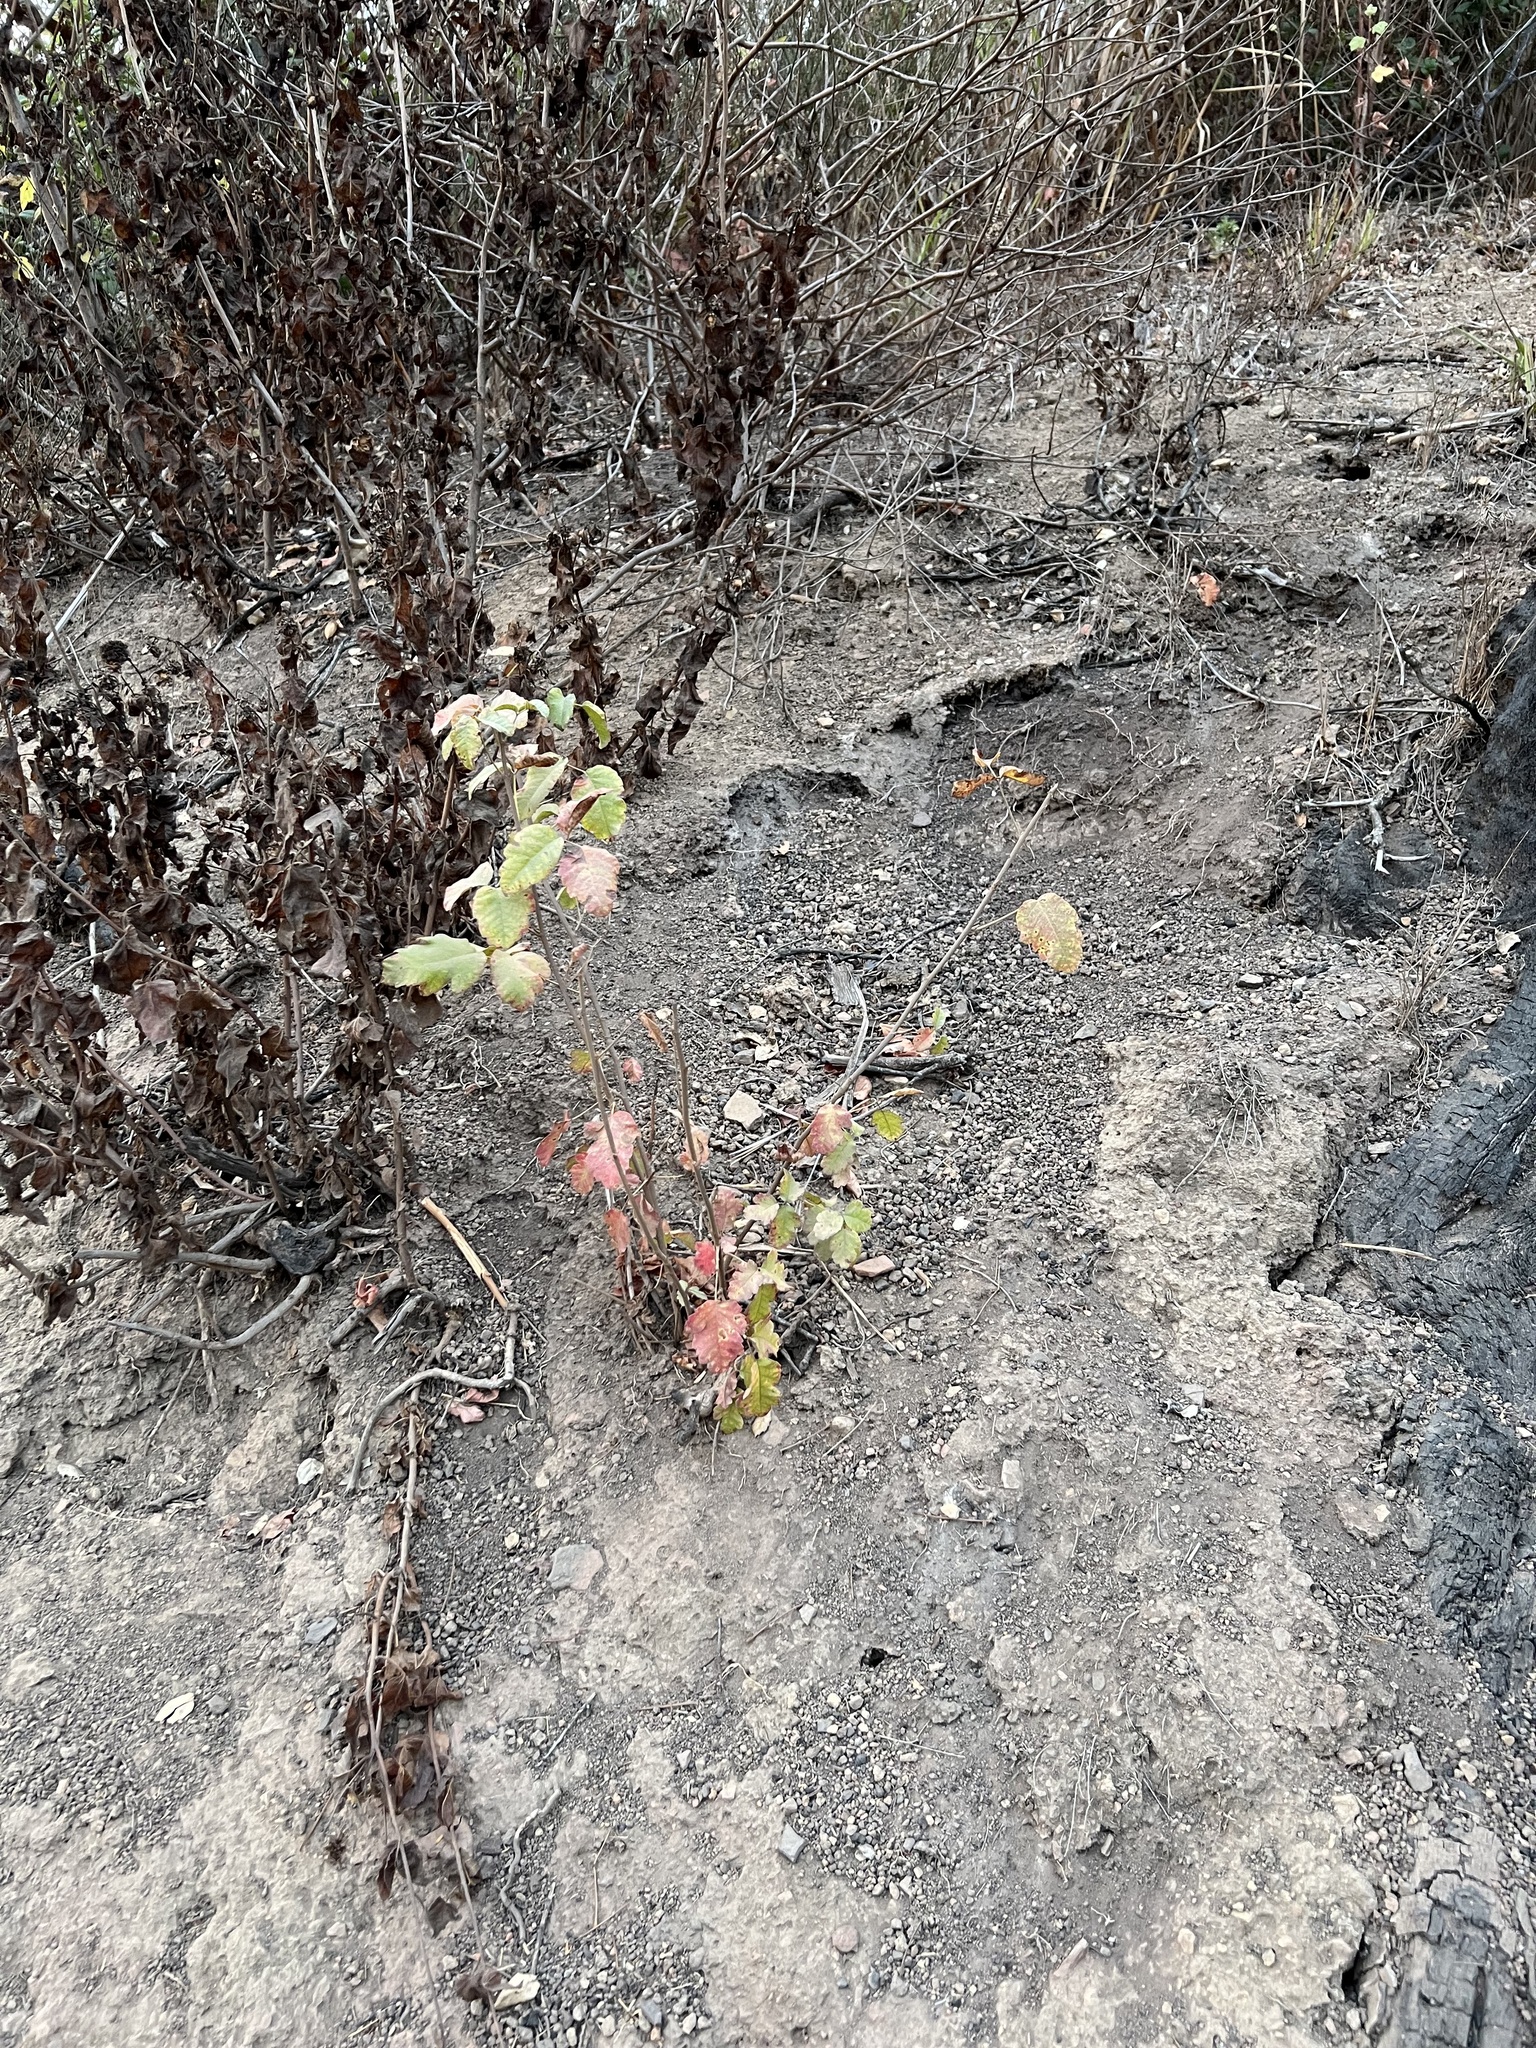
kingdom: Plantae
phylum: Tracheophyta
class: Magnoliopsida
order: Sapindales
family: Anacardiaceae
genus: Toxicodendron
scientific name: Toxicodendron diversilobum
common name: Pacific poison-oak
